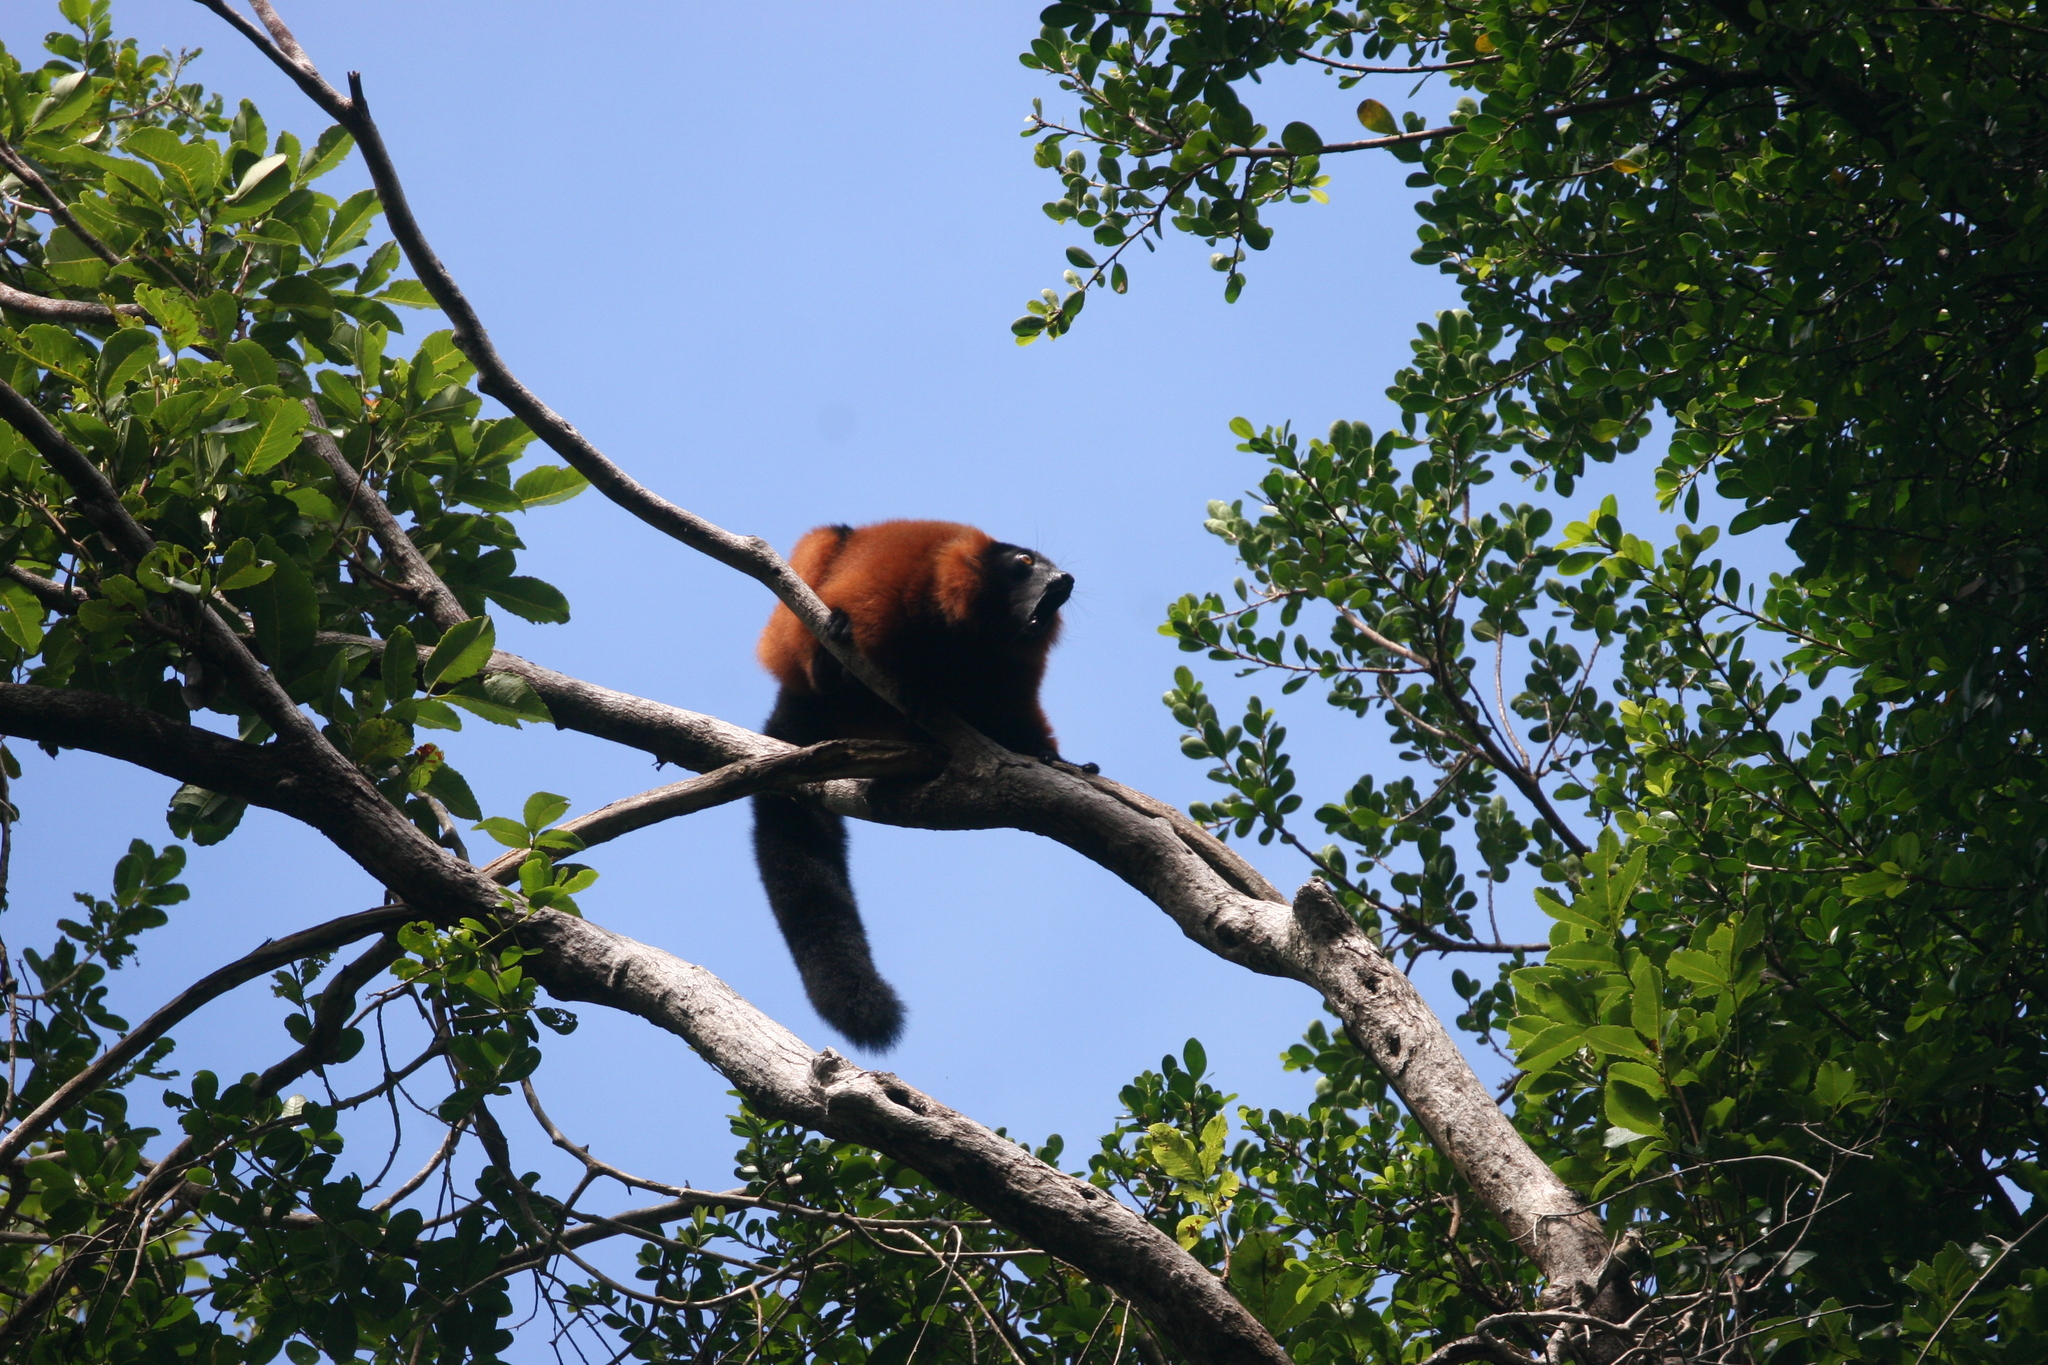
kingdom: Animalia
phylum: Chordata
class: Mammalia
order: Primates
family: Lemuridae
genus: Varecia
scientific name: Varecia rubra
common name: Red ruffed lemur
